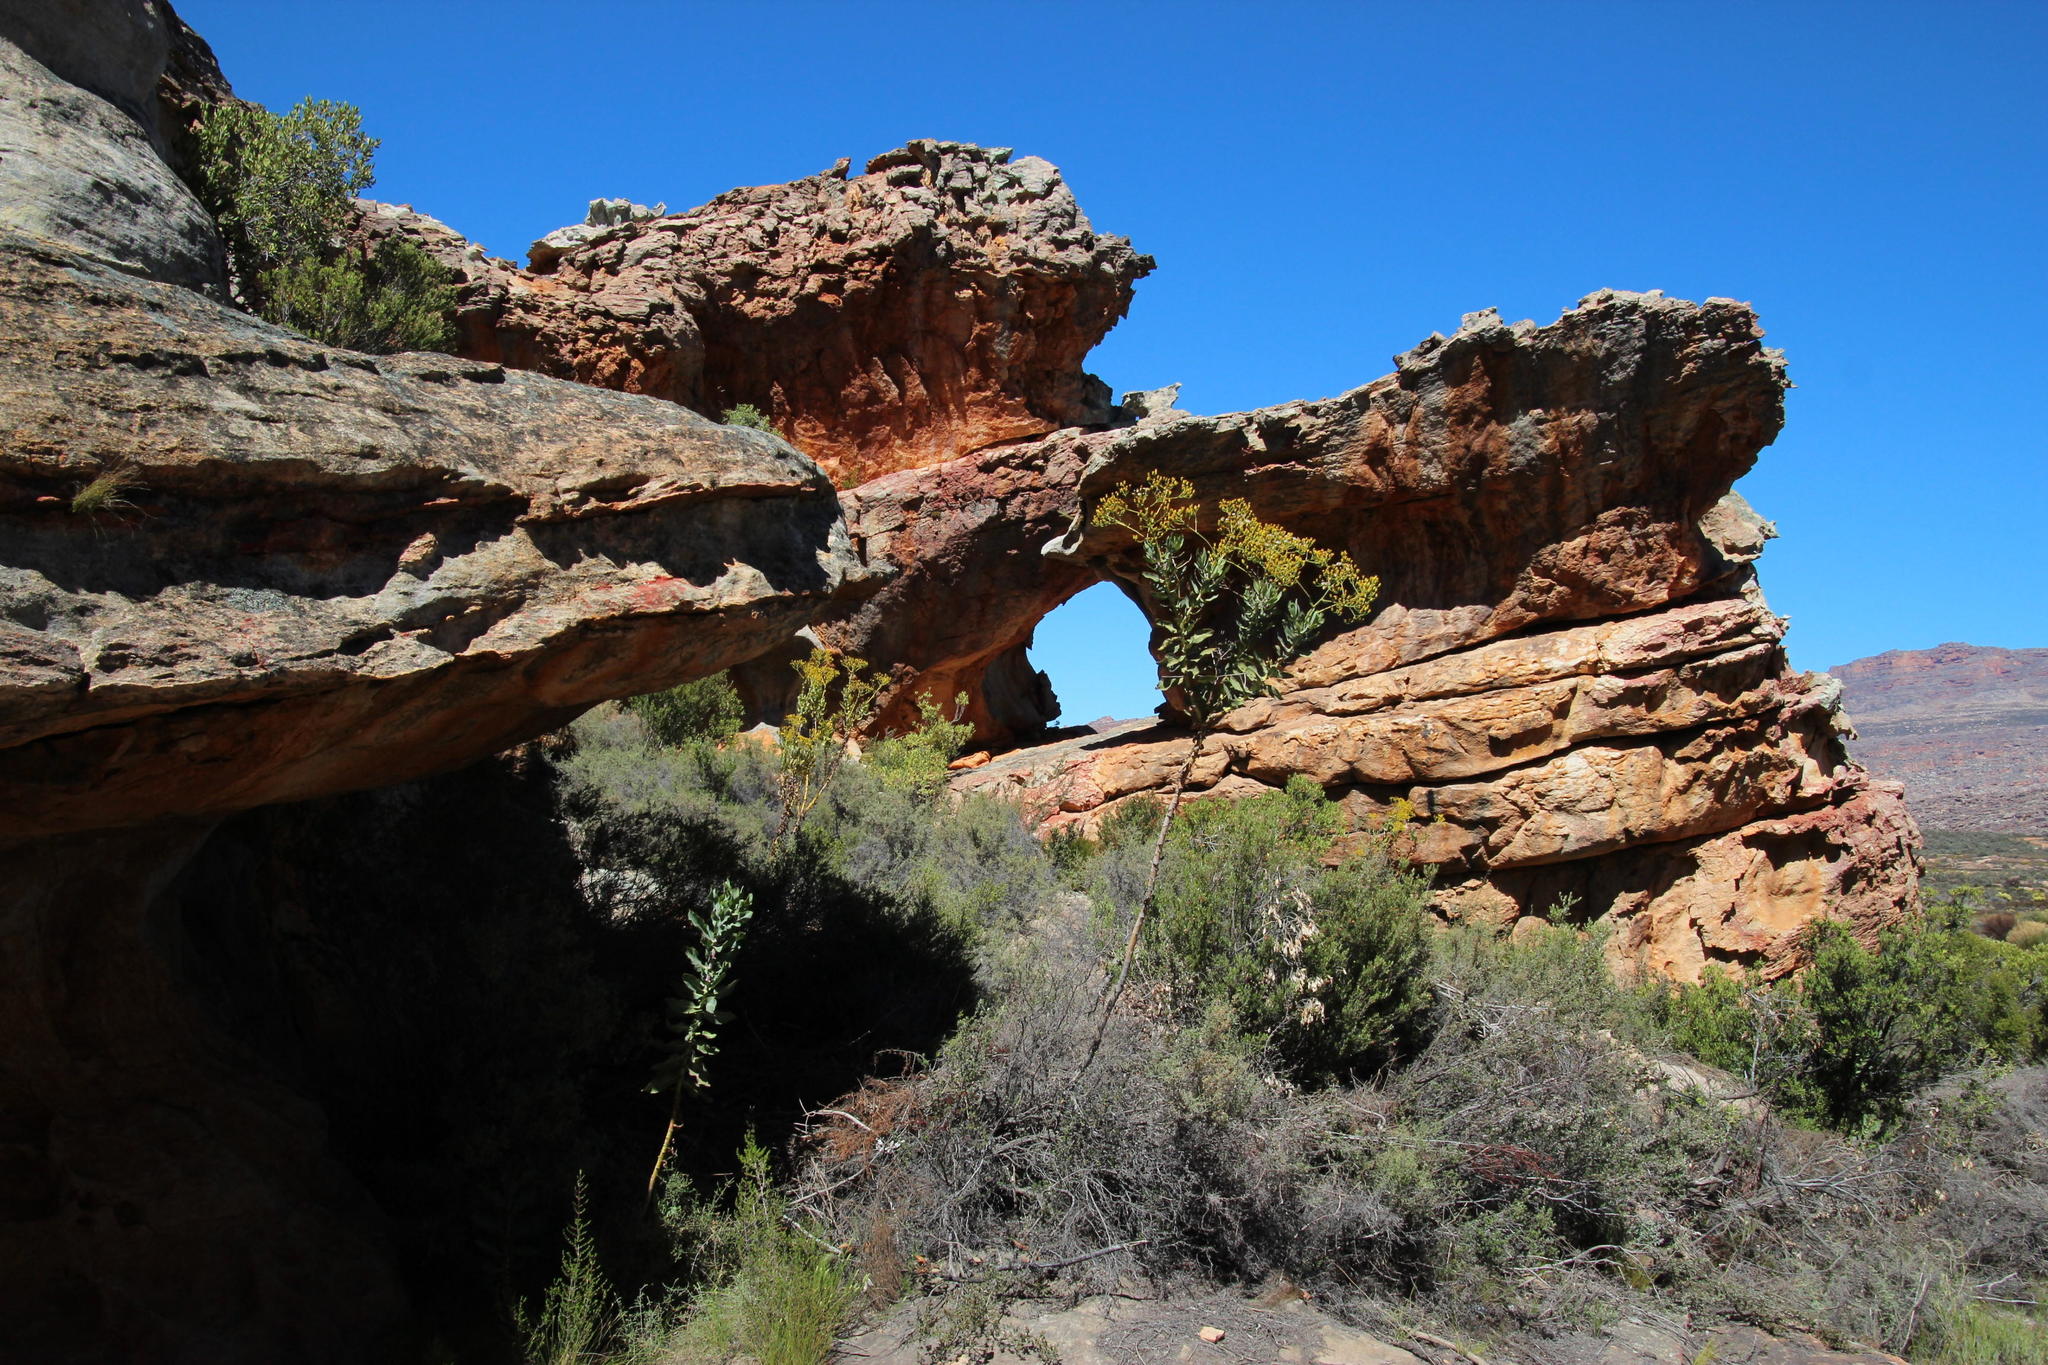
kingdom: Plantae
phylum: Tracheophyta
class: Magnoliopsida
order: Asterales
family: Asteraceae
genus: Othonna
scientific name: Othonna parviflora
